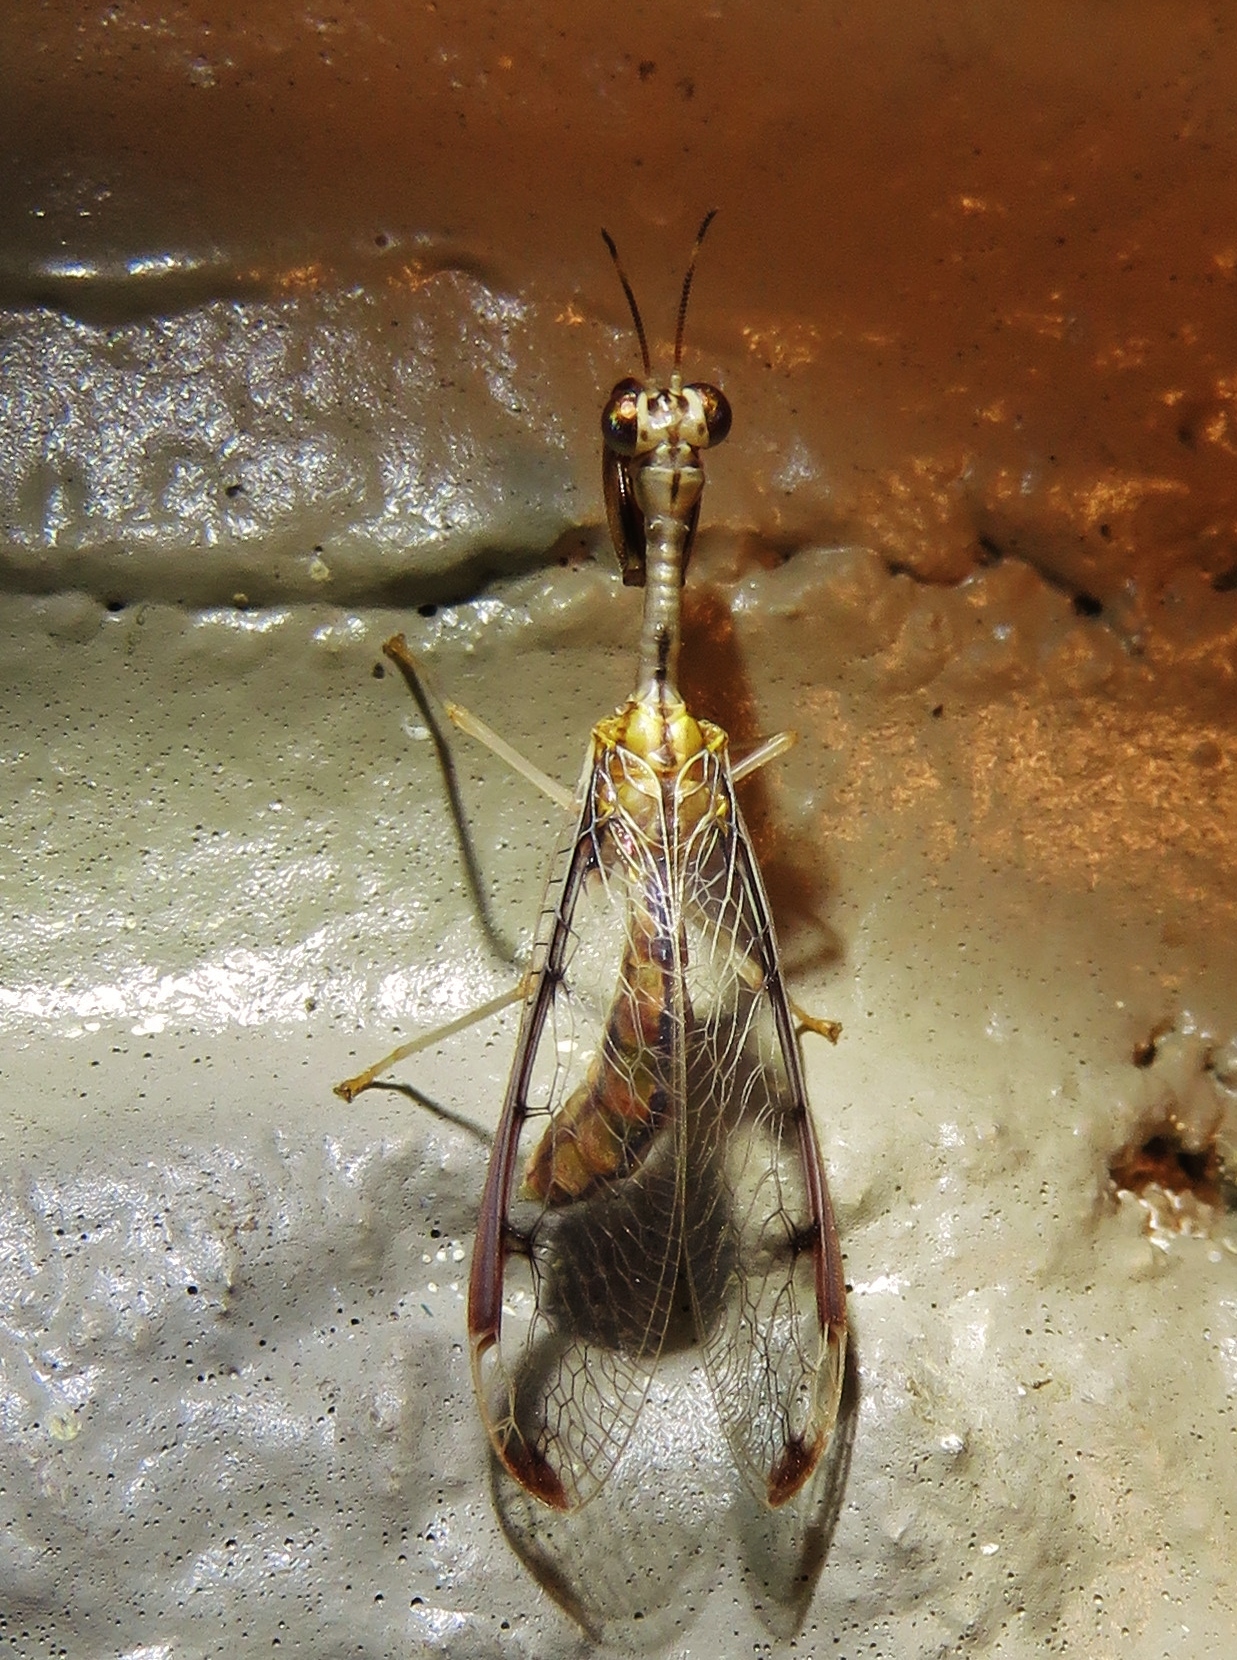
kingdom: Animalia
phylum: Arthropoda
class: Insecta
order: Neuroptera
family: Mantispidae
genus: Dicromantispa
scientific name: Dicromantispa interrupta
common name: Four-spotted mantidfly
